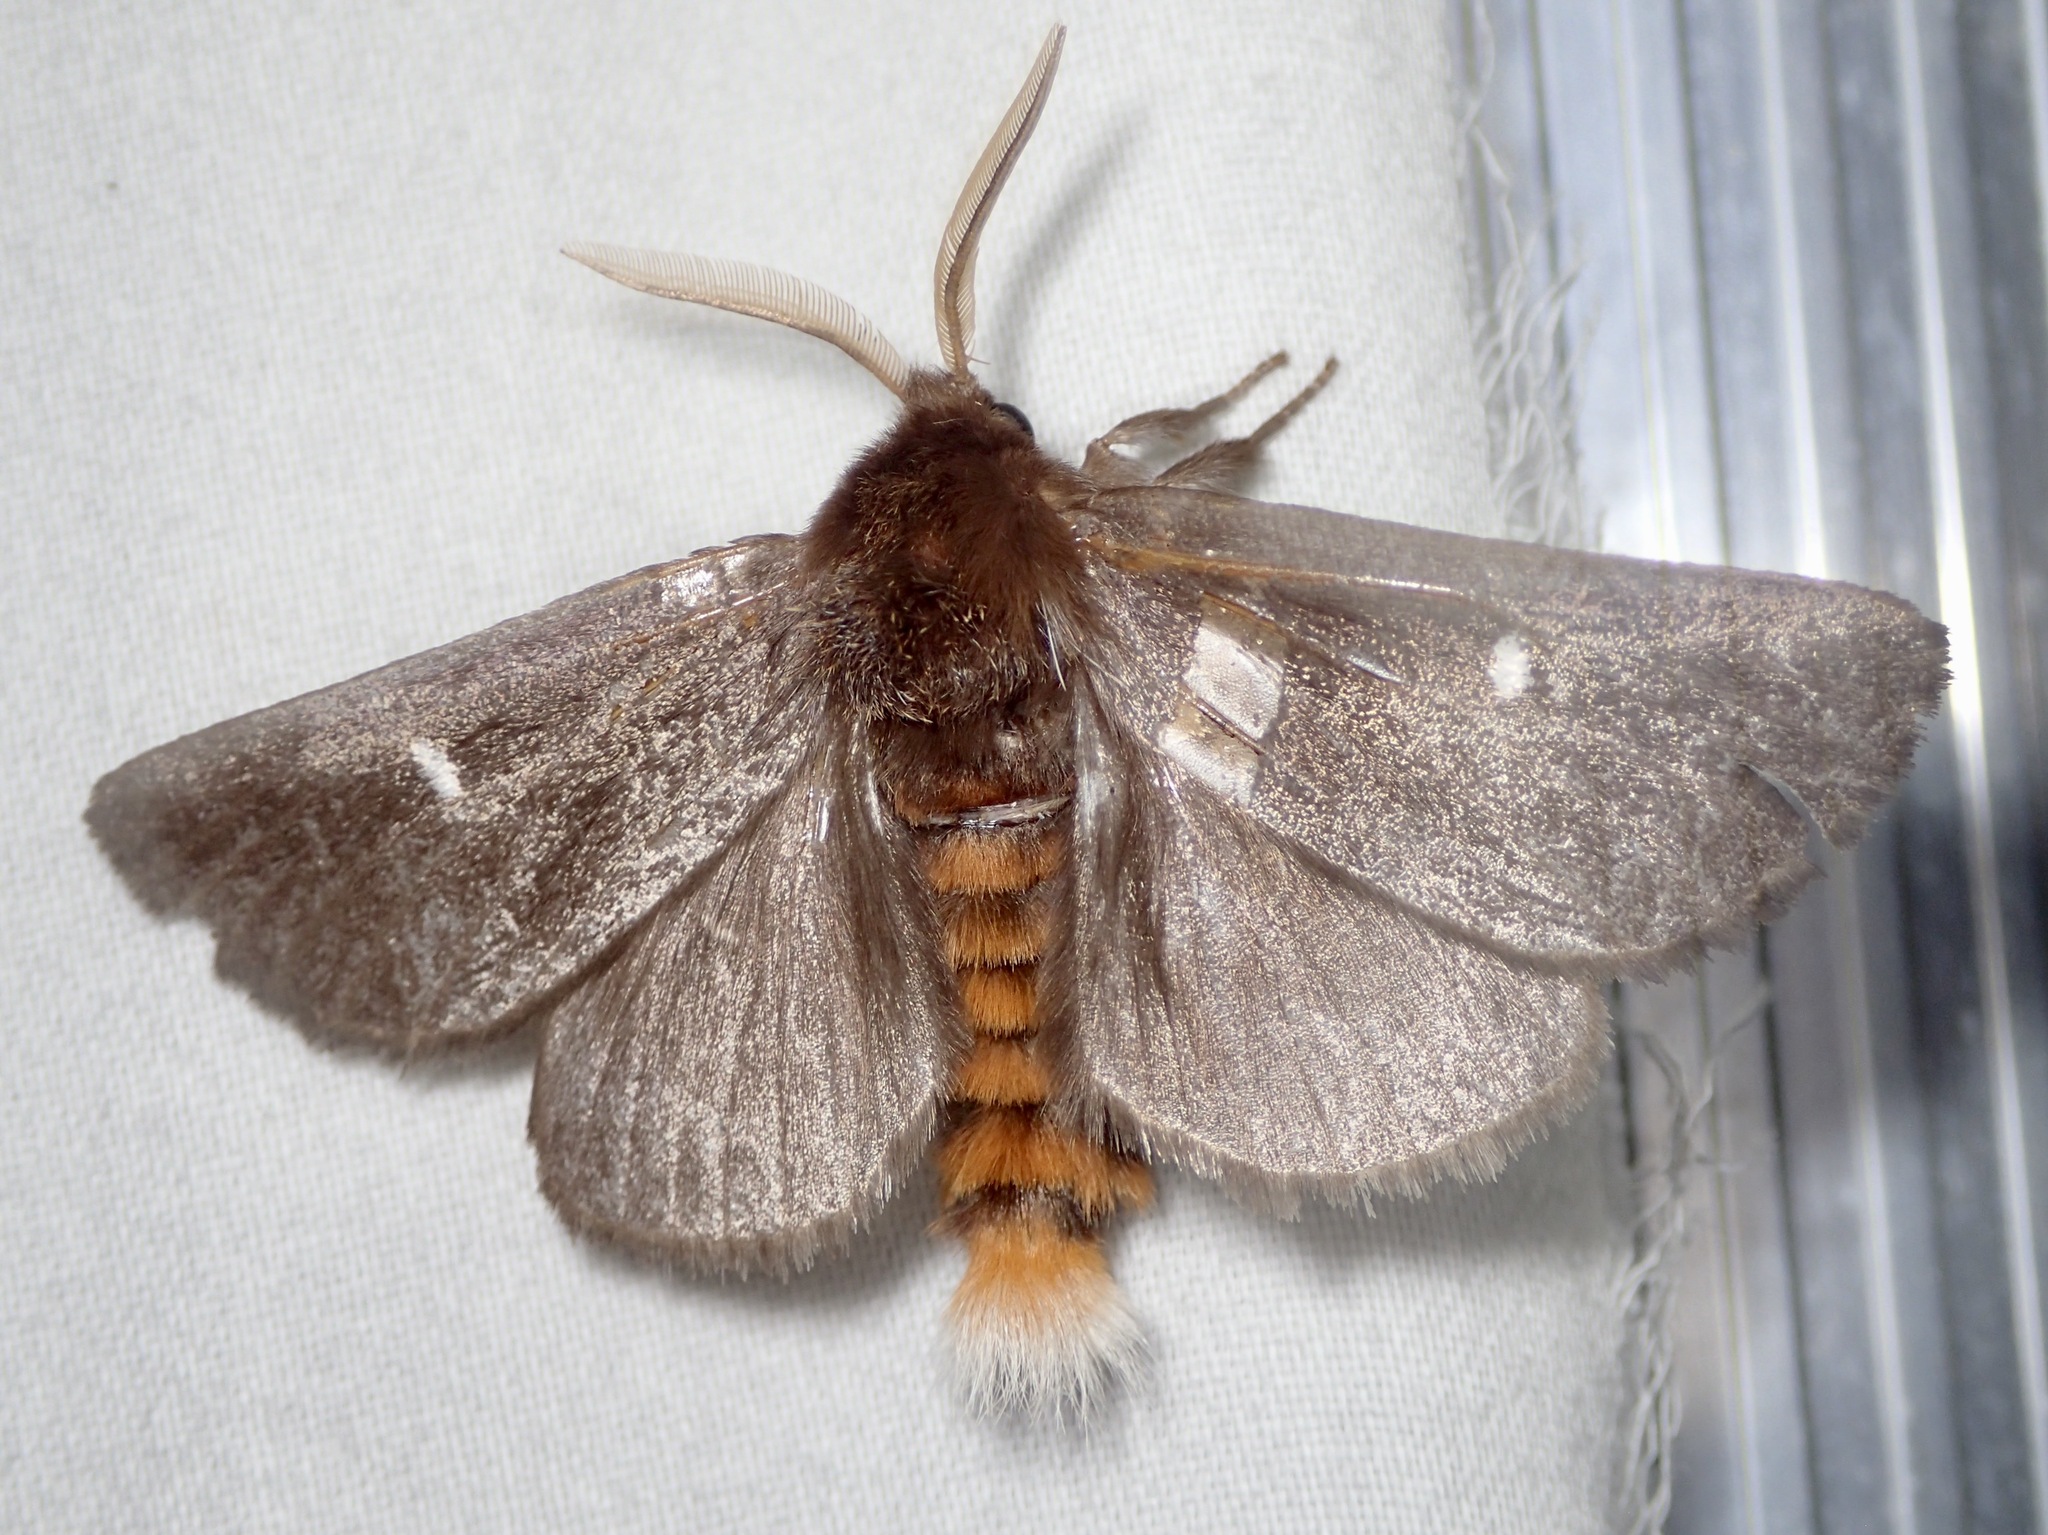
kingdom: Animalia
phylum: Arthropoda
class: Insecta
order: Lepidoptera
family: Notodontidae
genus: Ochrogaster
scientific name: Ochrogaster lunifer
